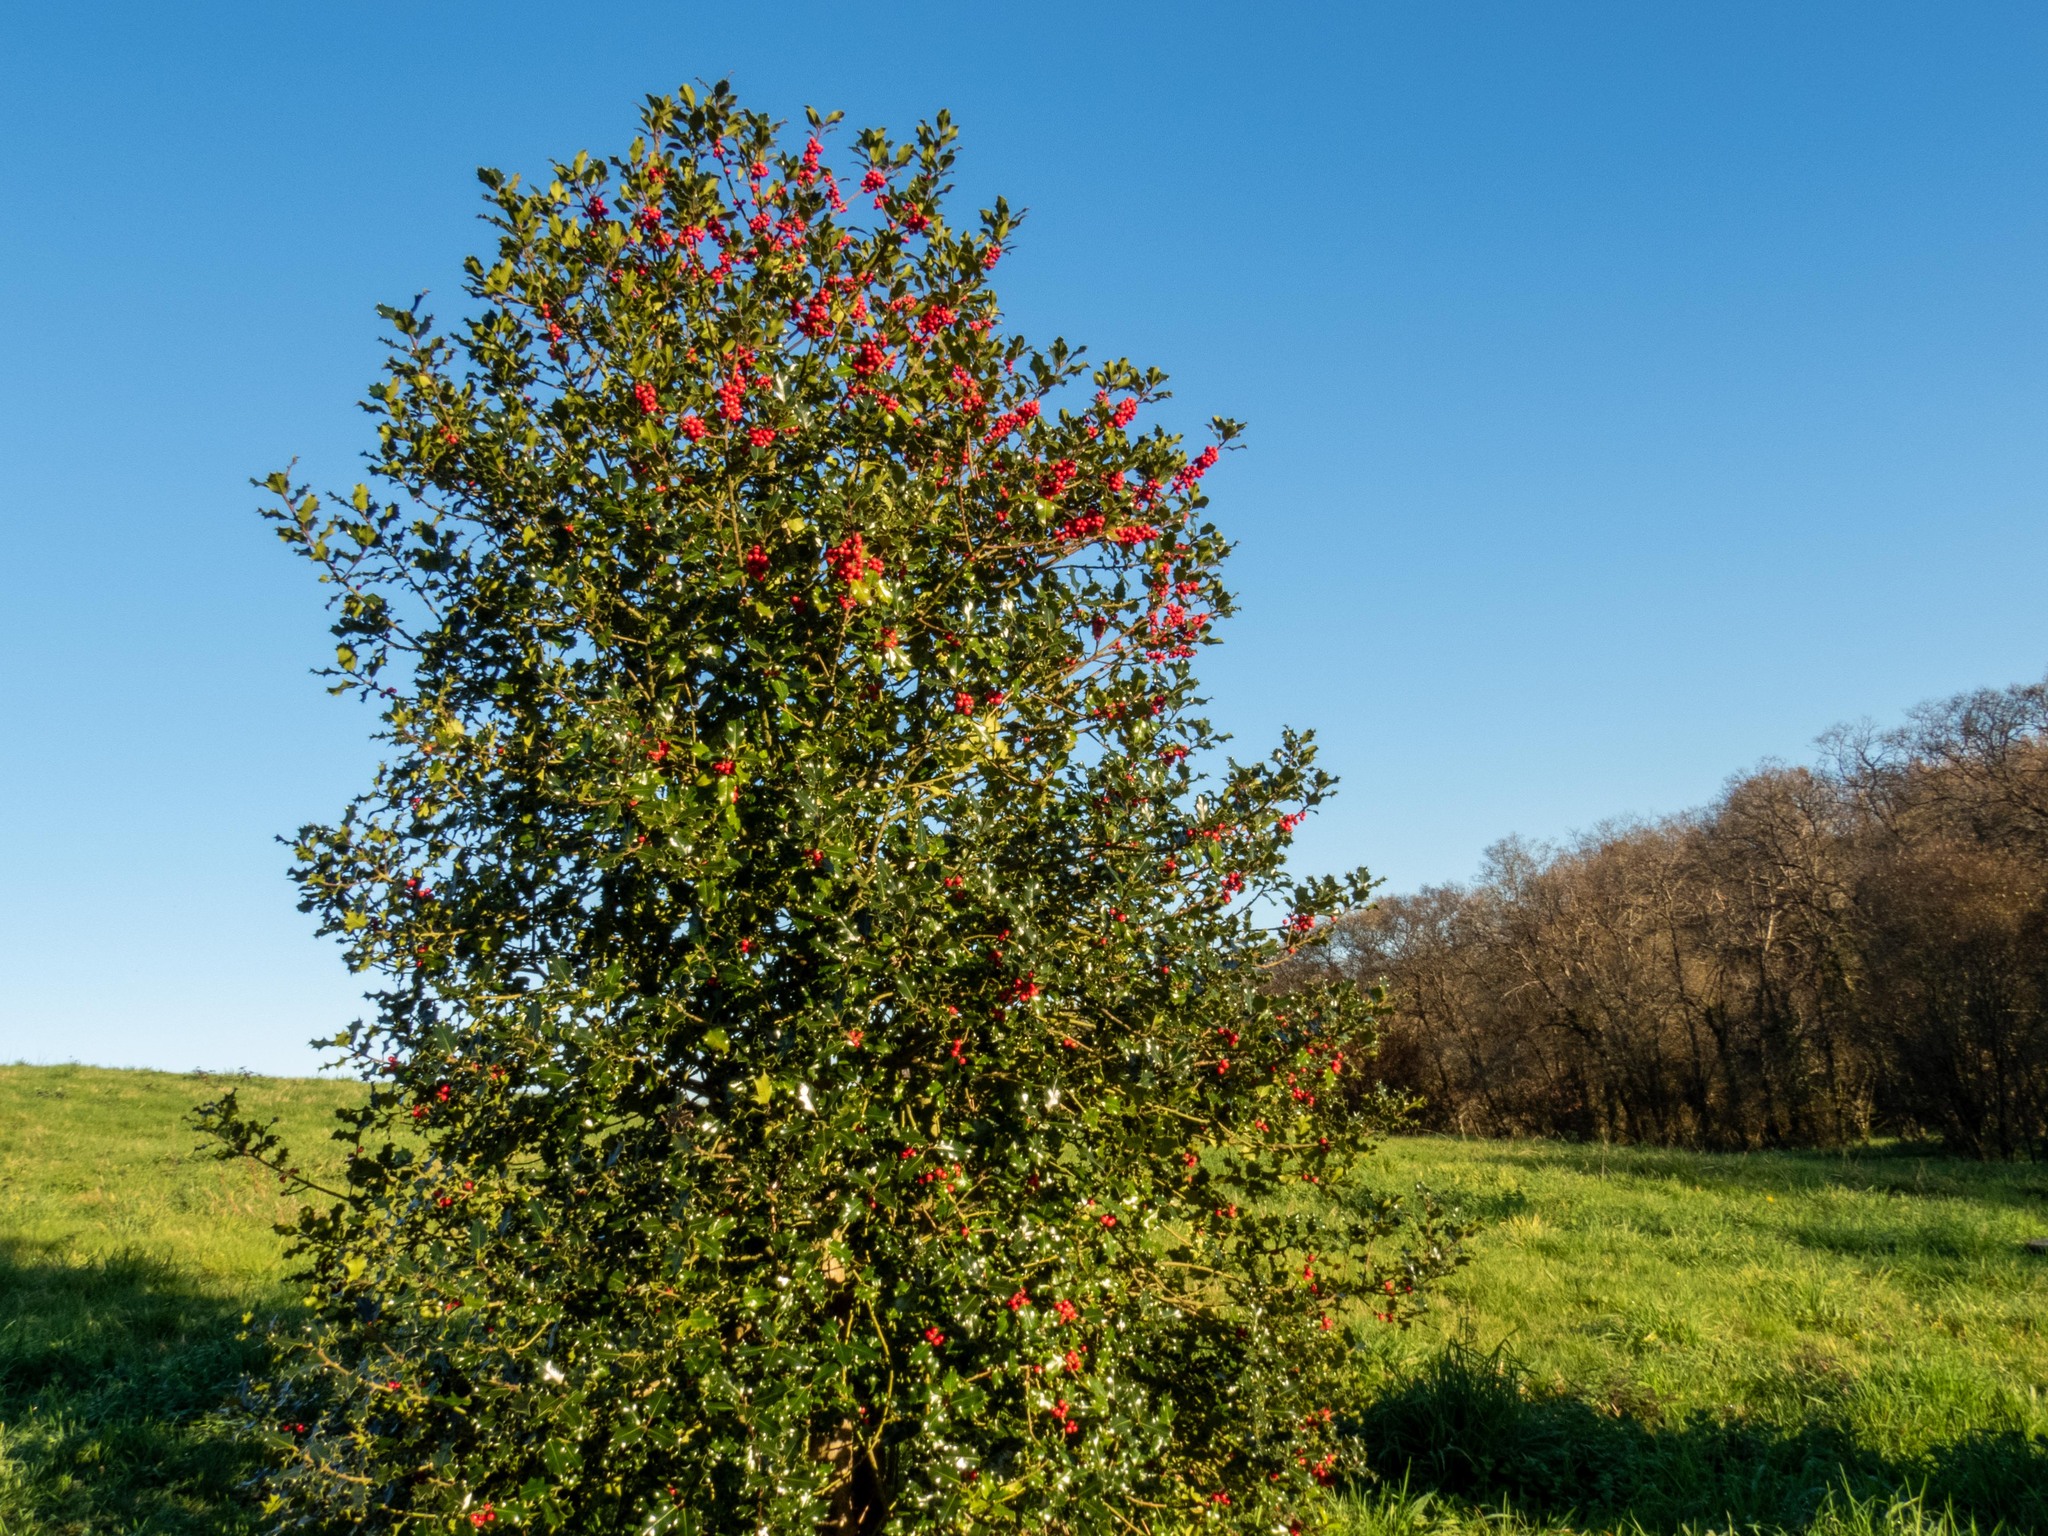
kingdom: Plantae
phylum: Tracheophyta
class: Magnoliopsida
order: Aquifoliales
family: Aquifoliaceae
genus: Ilex
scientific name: Ilex aquifolium
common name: English holly
